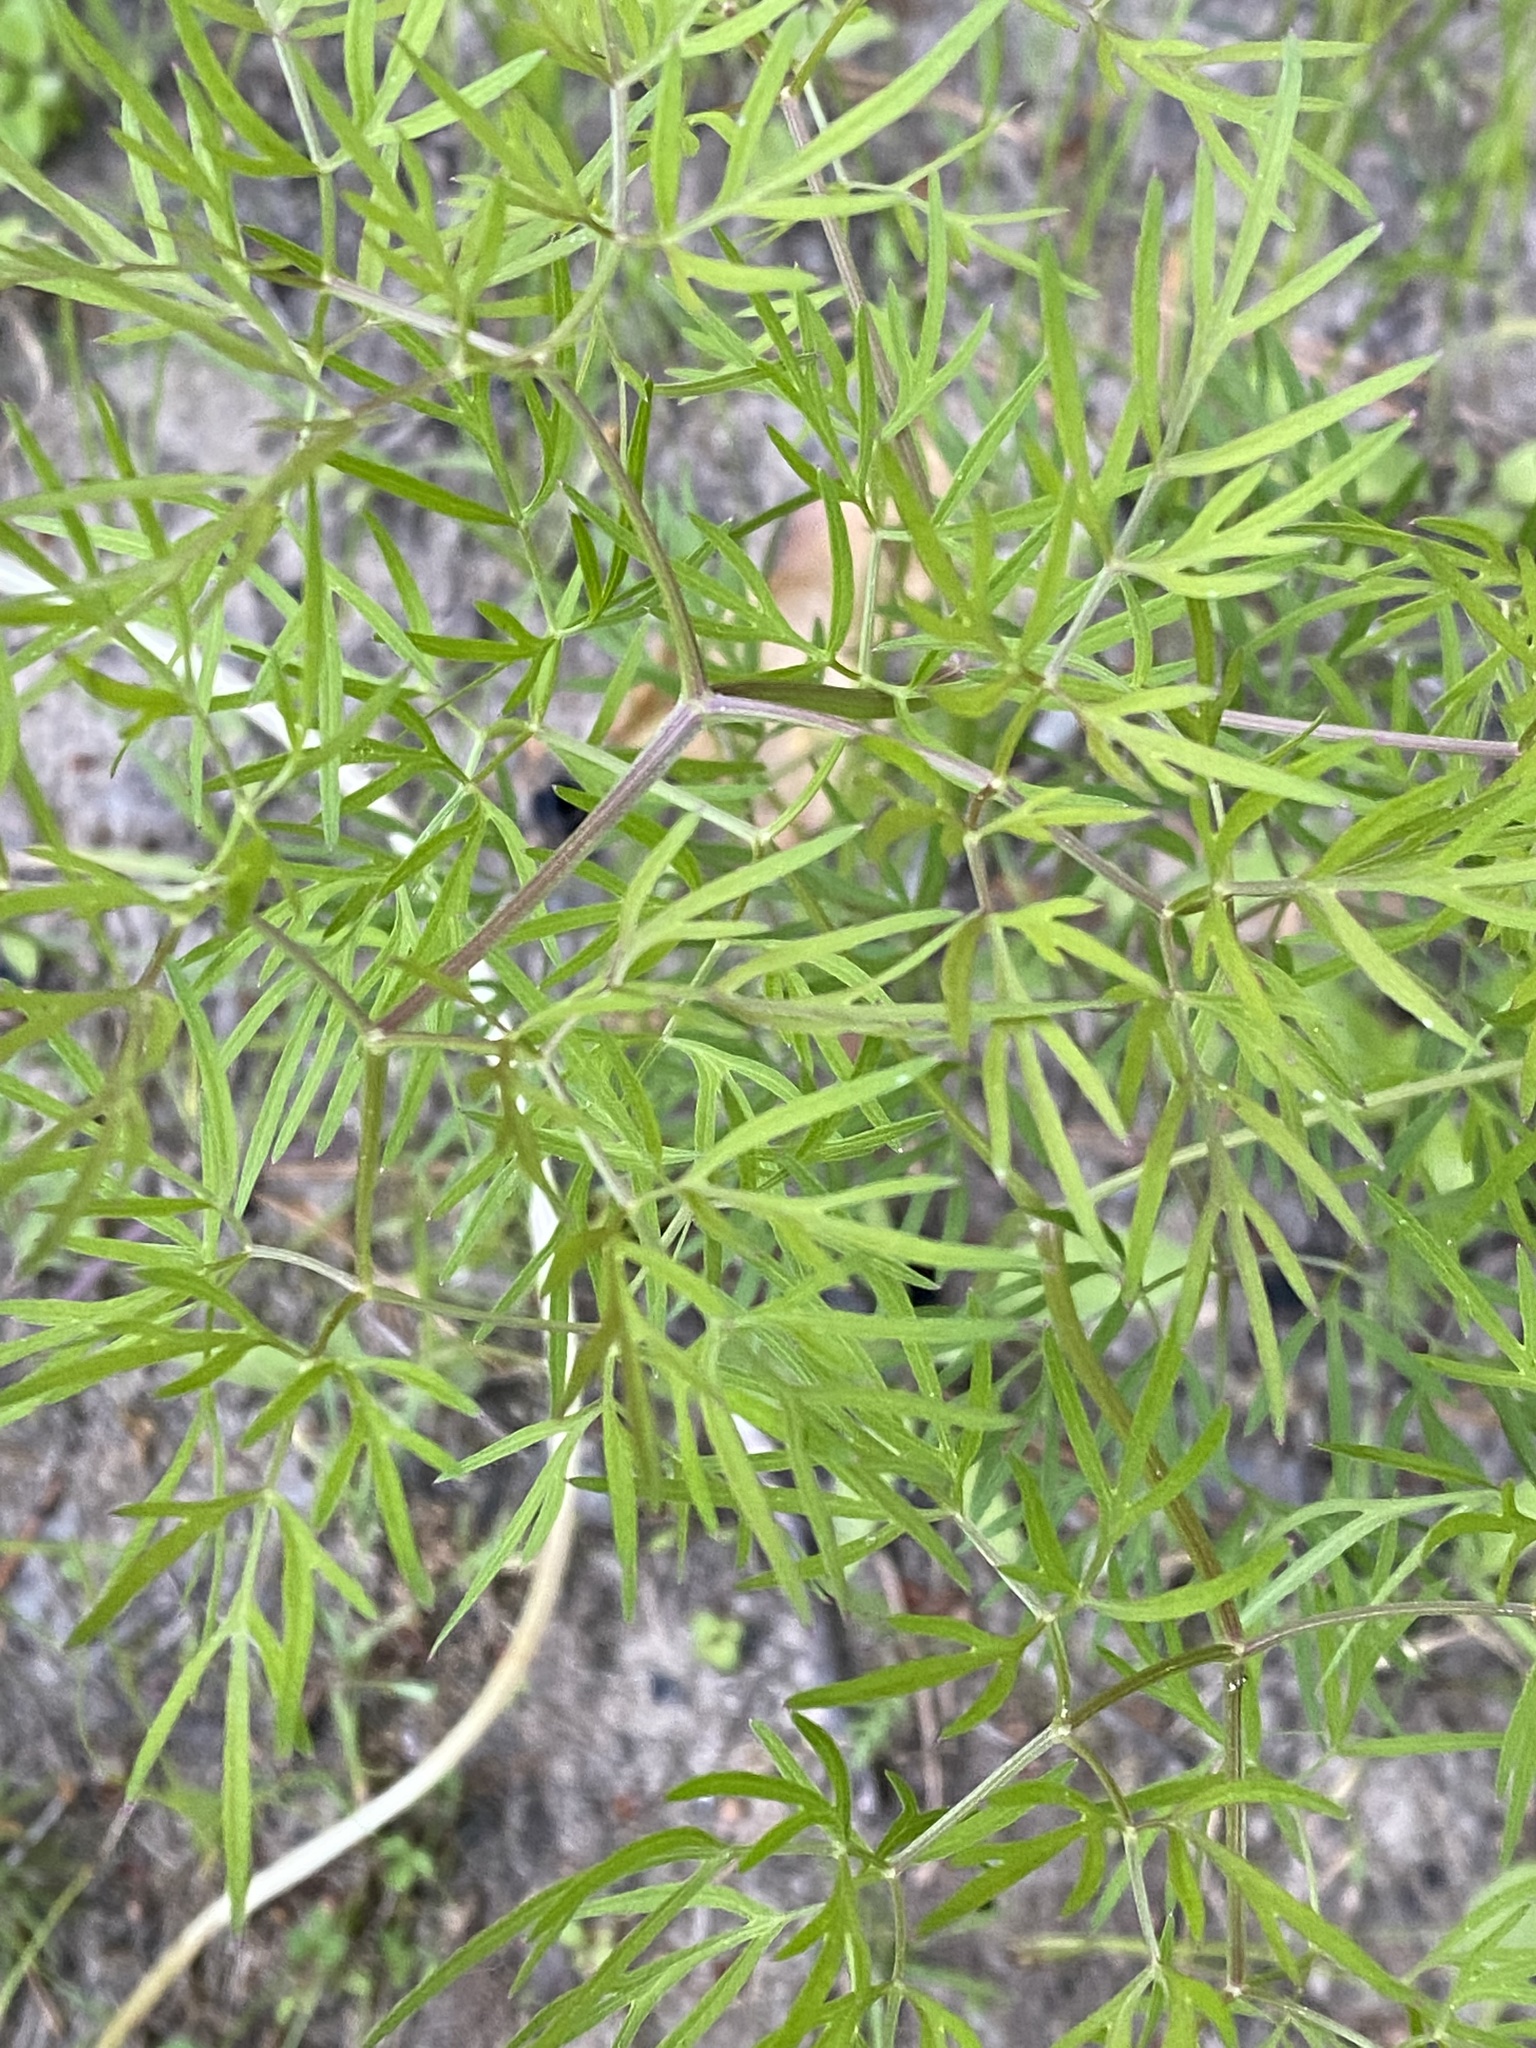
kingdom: Plantae
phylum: Tracheophyta
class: Magnoliopsida
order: Apiales
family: Apiaceae
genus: Cenolophium
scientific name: Cenolophium fischeri
